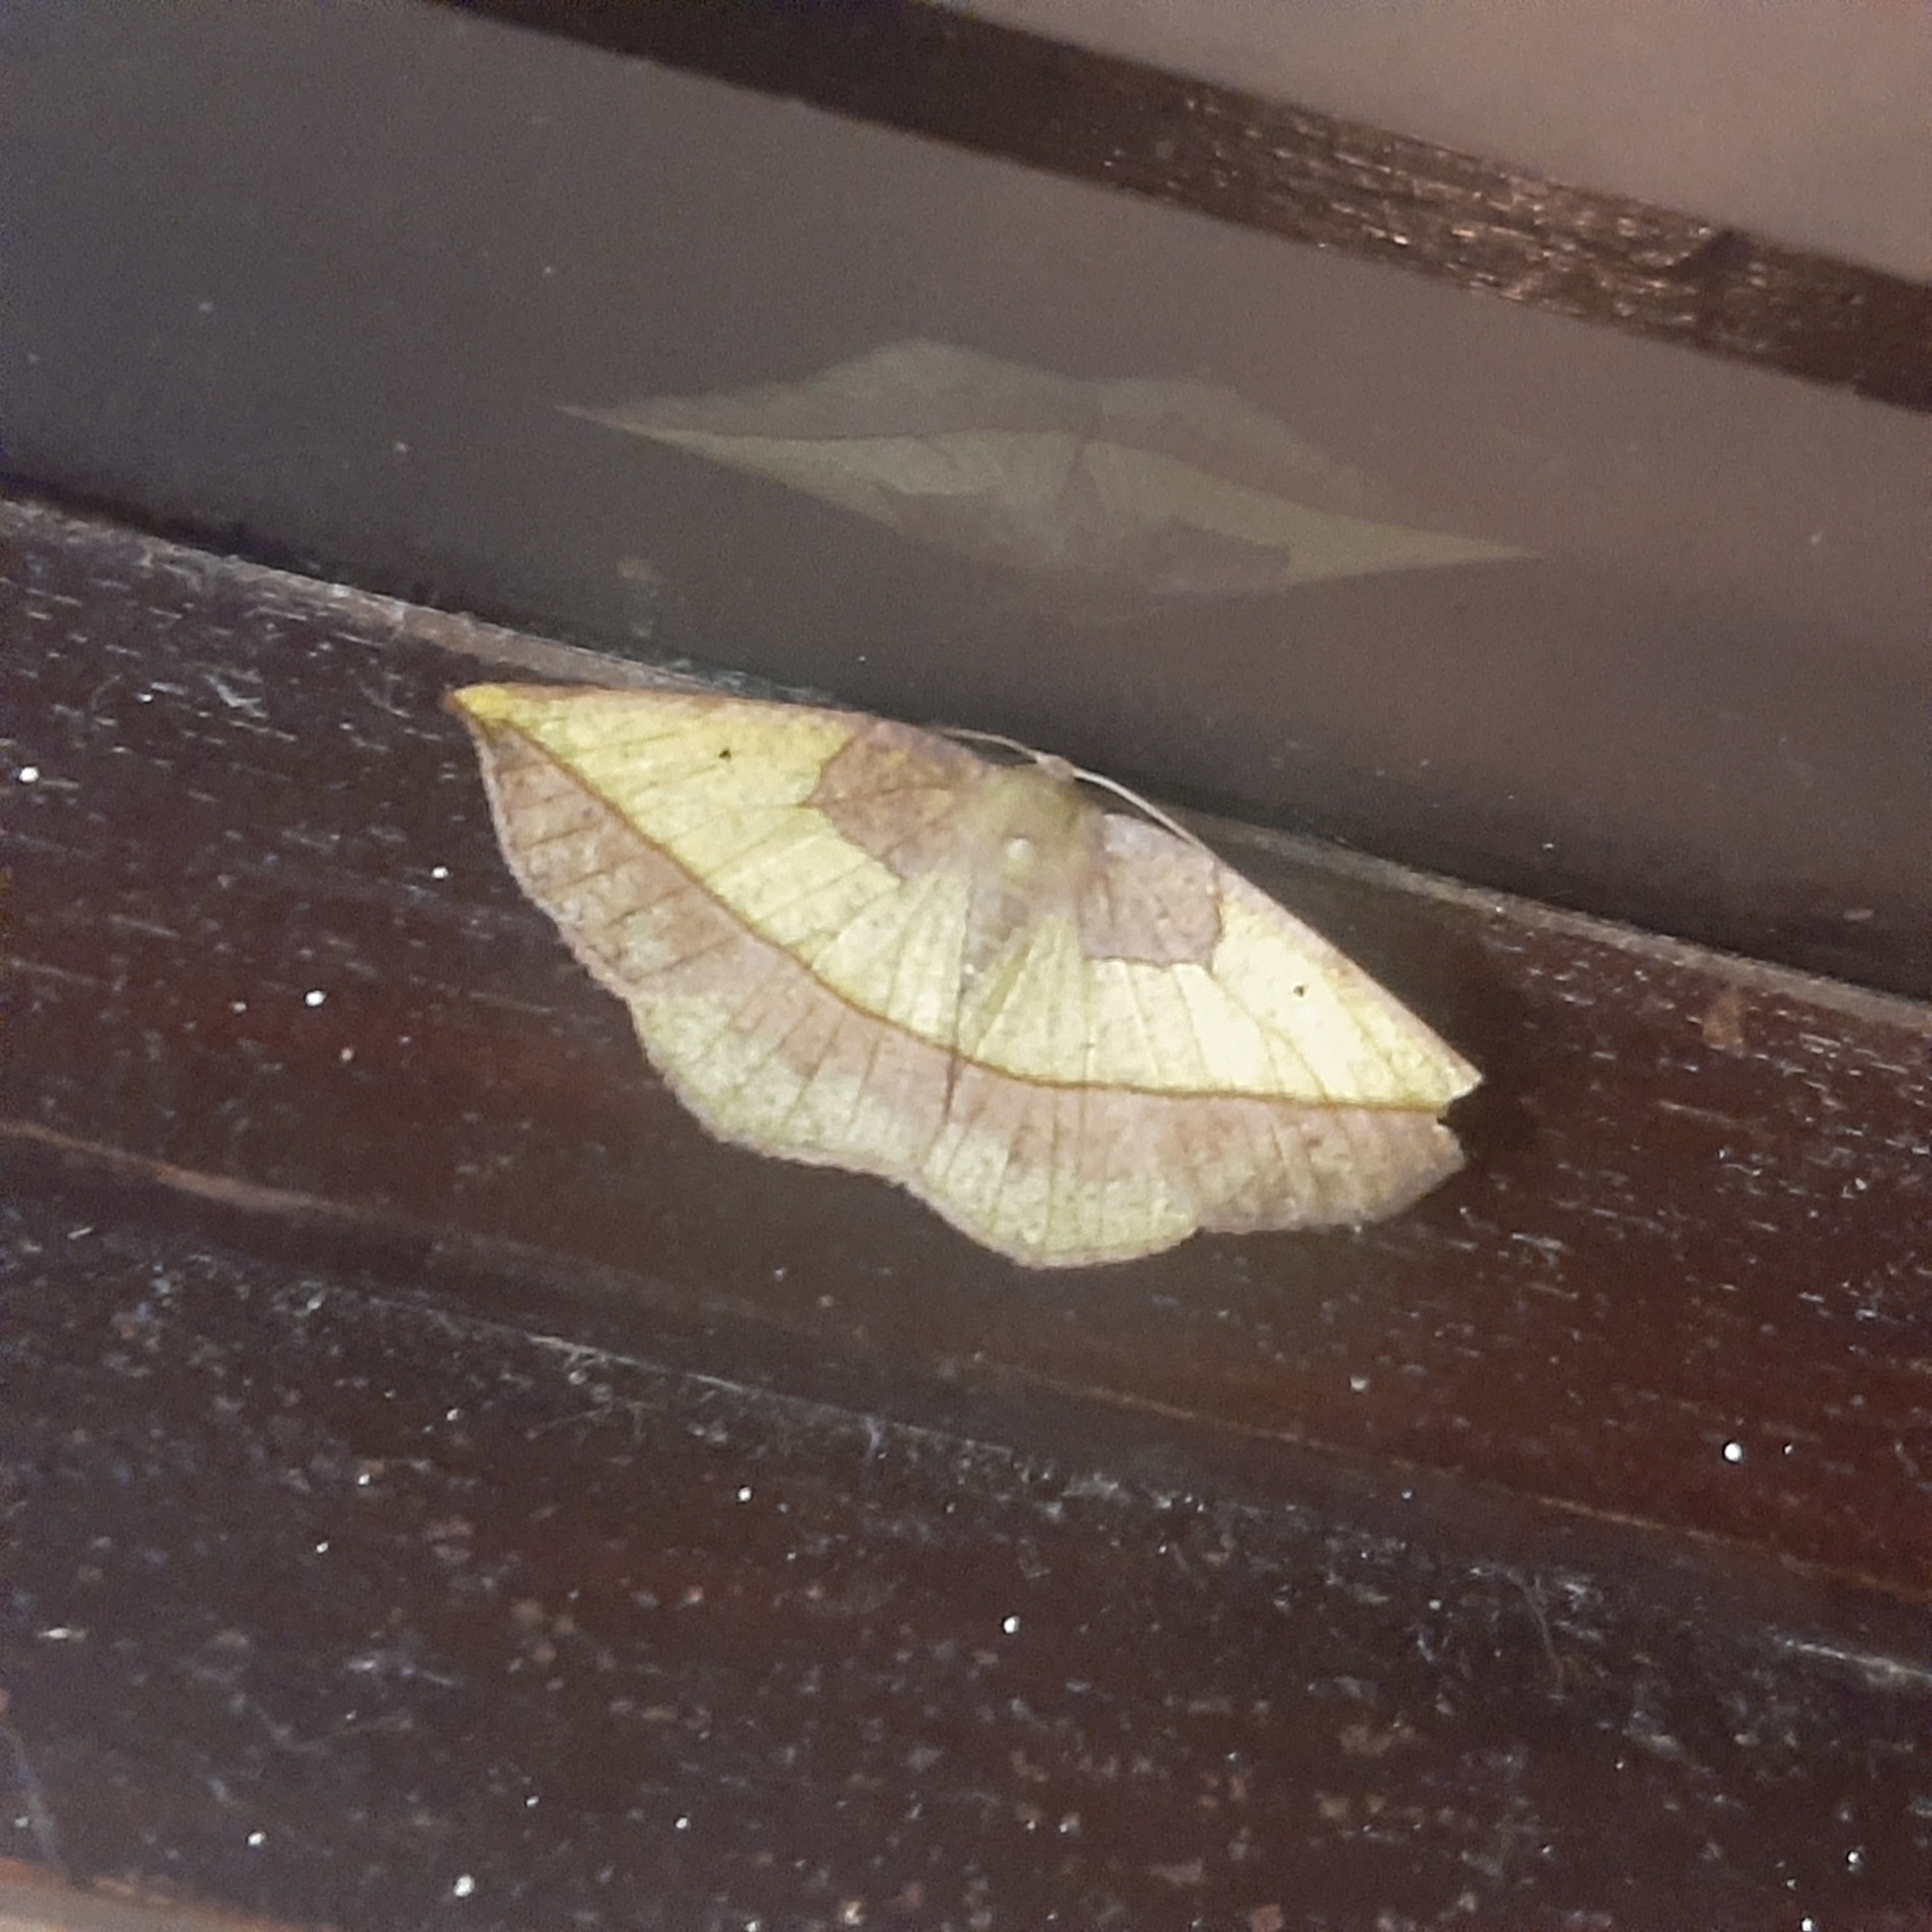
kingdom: Animalia
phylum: Arthropoda
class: Insecta
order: Lepidoptera
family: Geometridae
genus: Eusarca
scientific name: Eusarca fundaria
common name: Dark-edged eusarca moth
